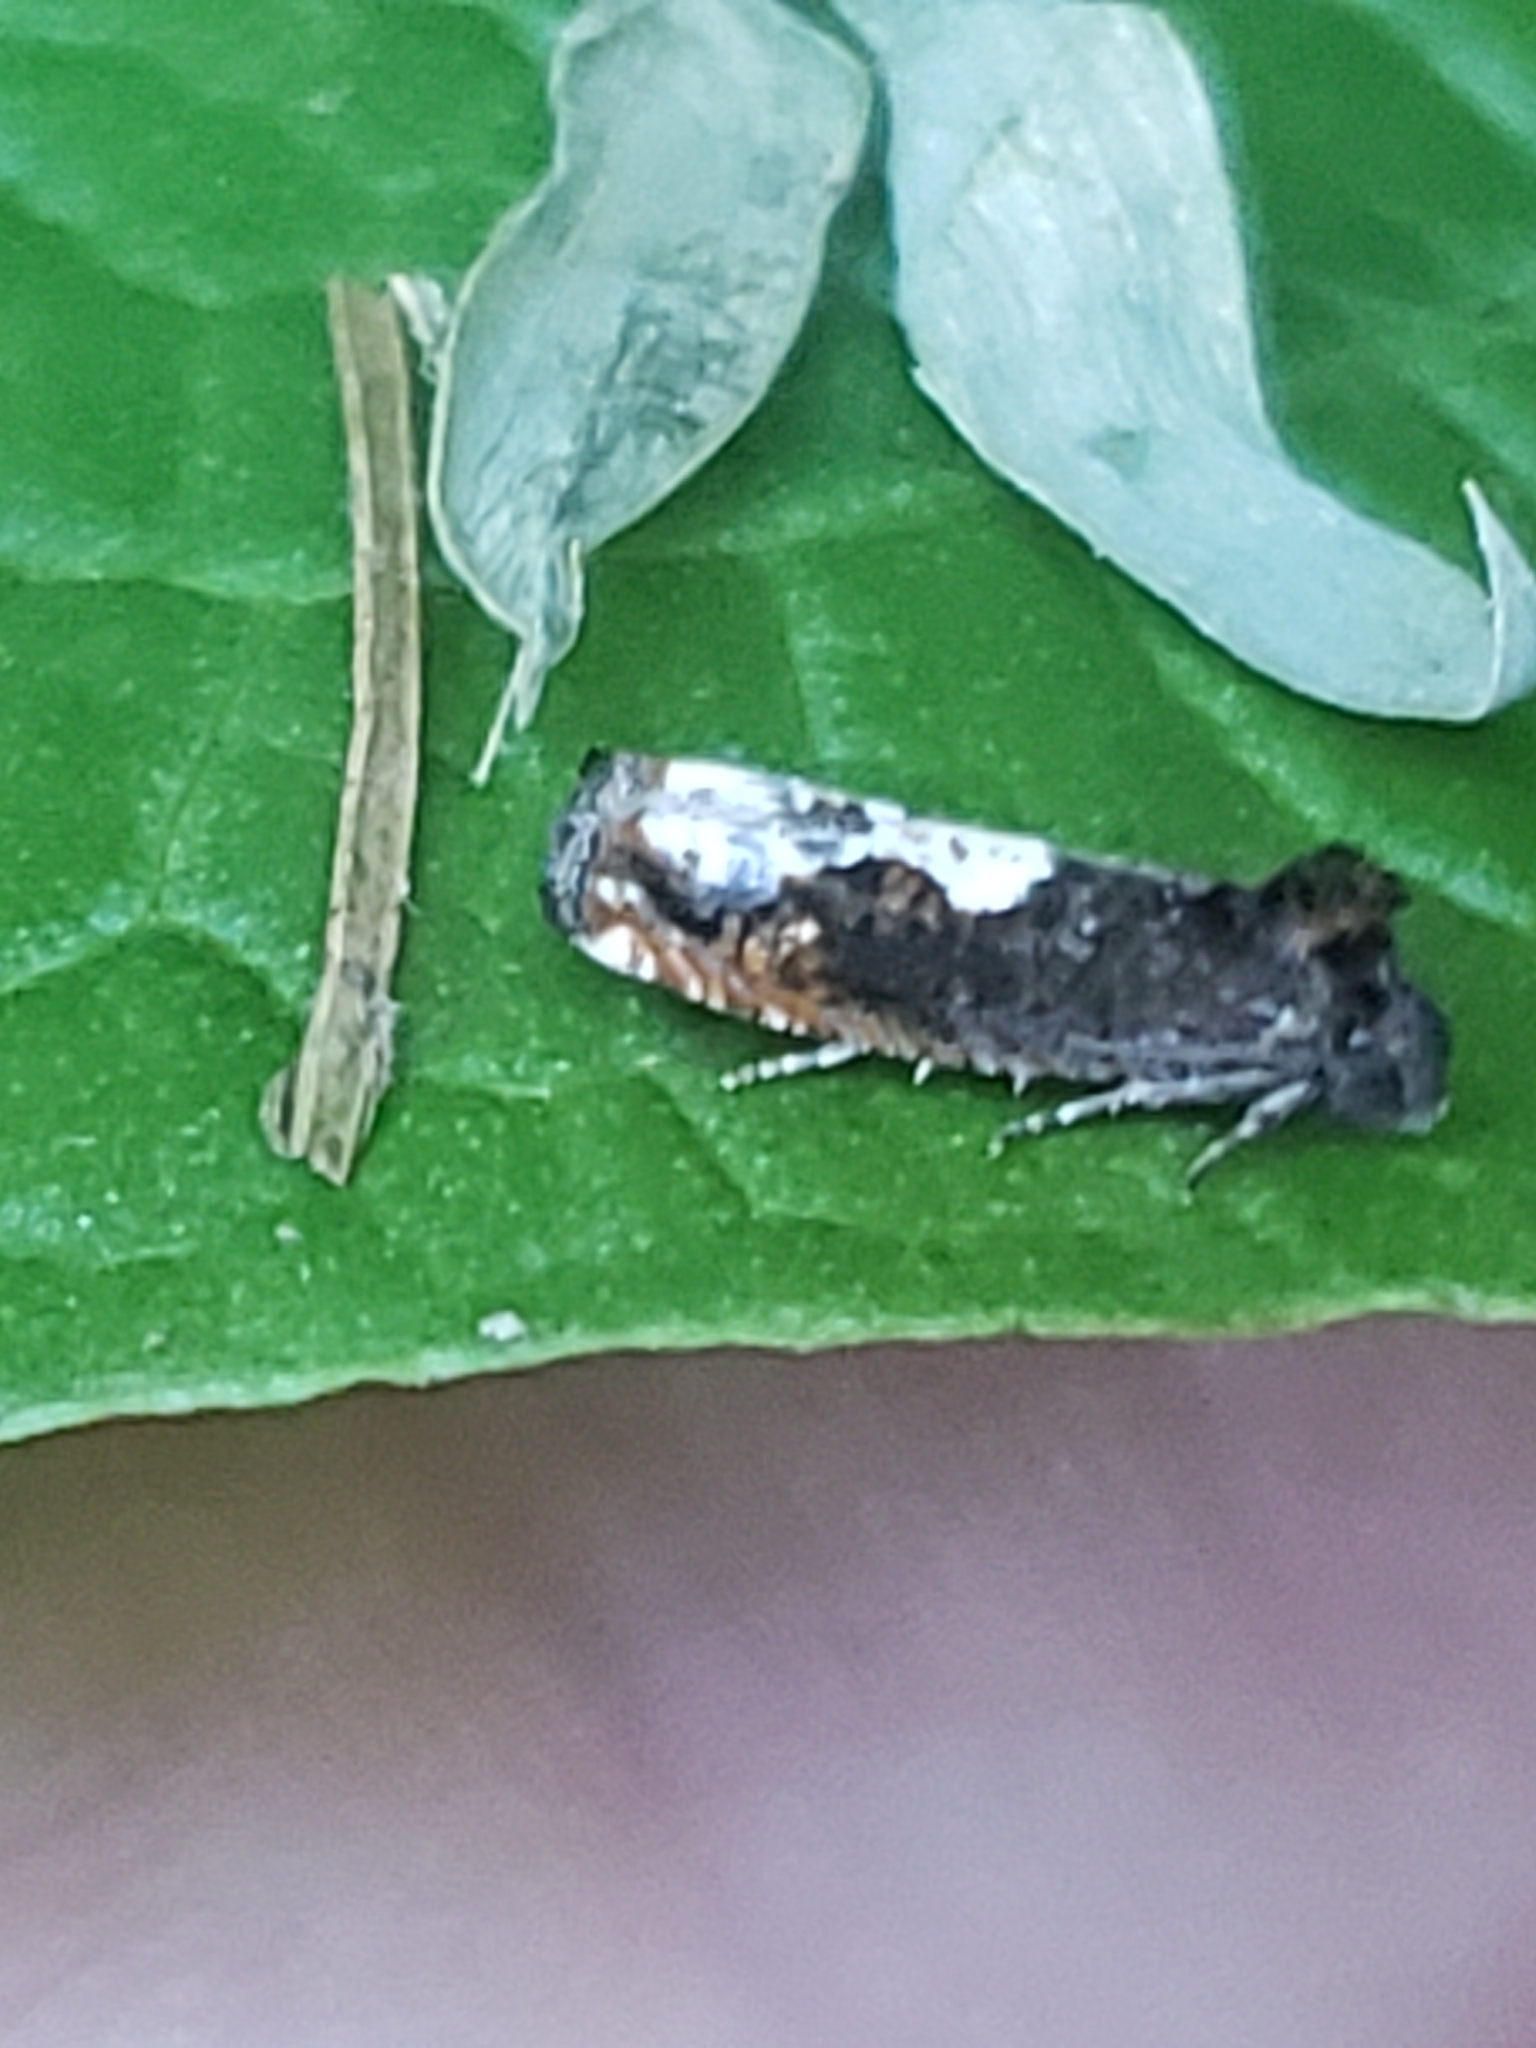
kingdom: Animalia
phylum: Arthropoda
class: Insecta
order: Lepidoptera
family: Tortricidae
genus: Epiblema
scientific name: Epiblema dorsisuffusana
